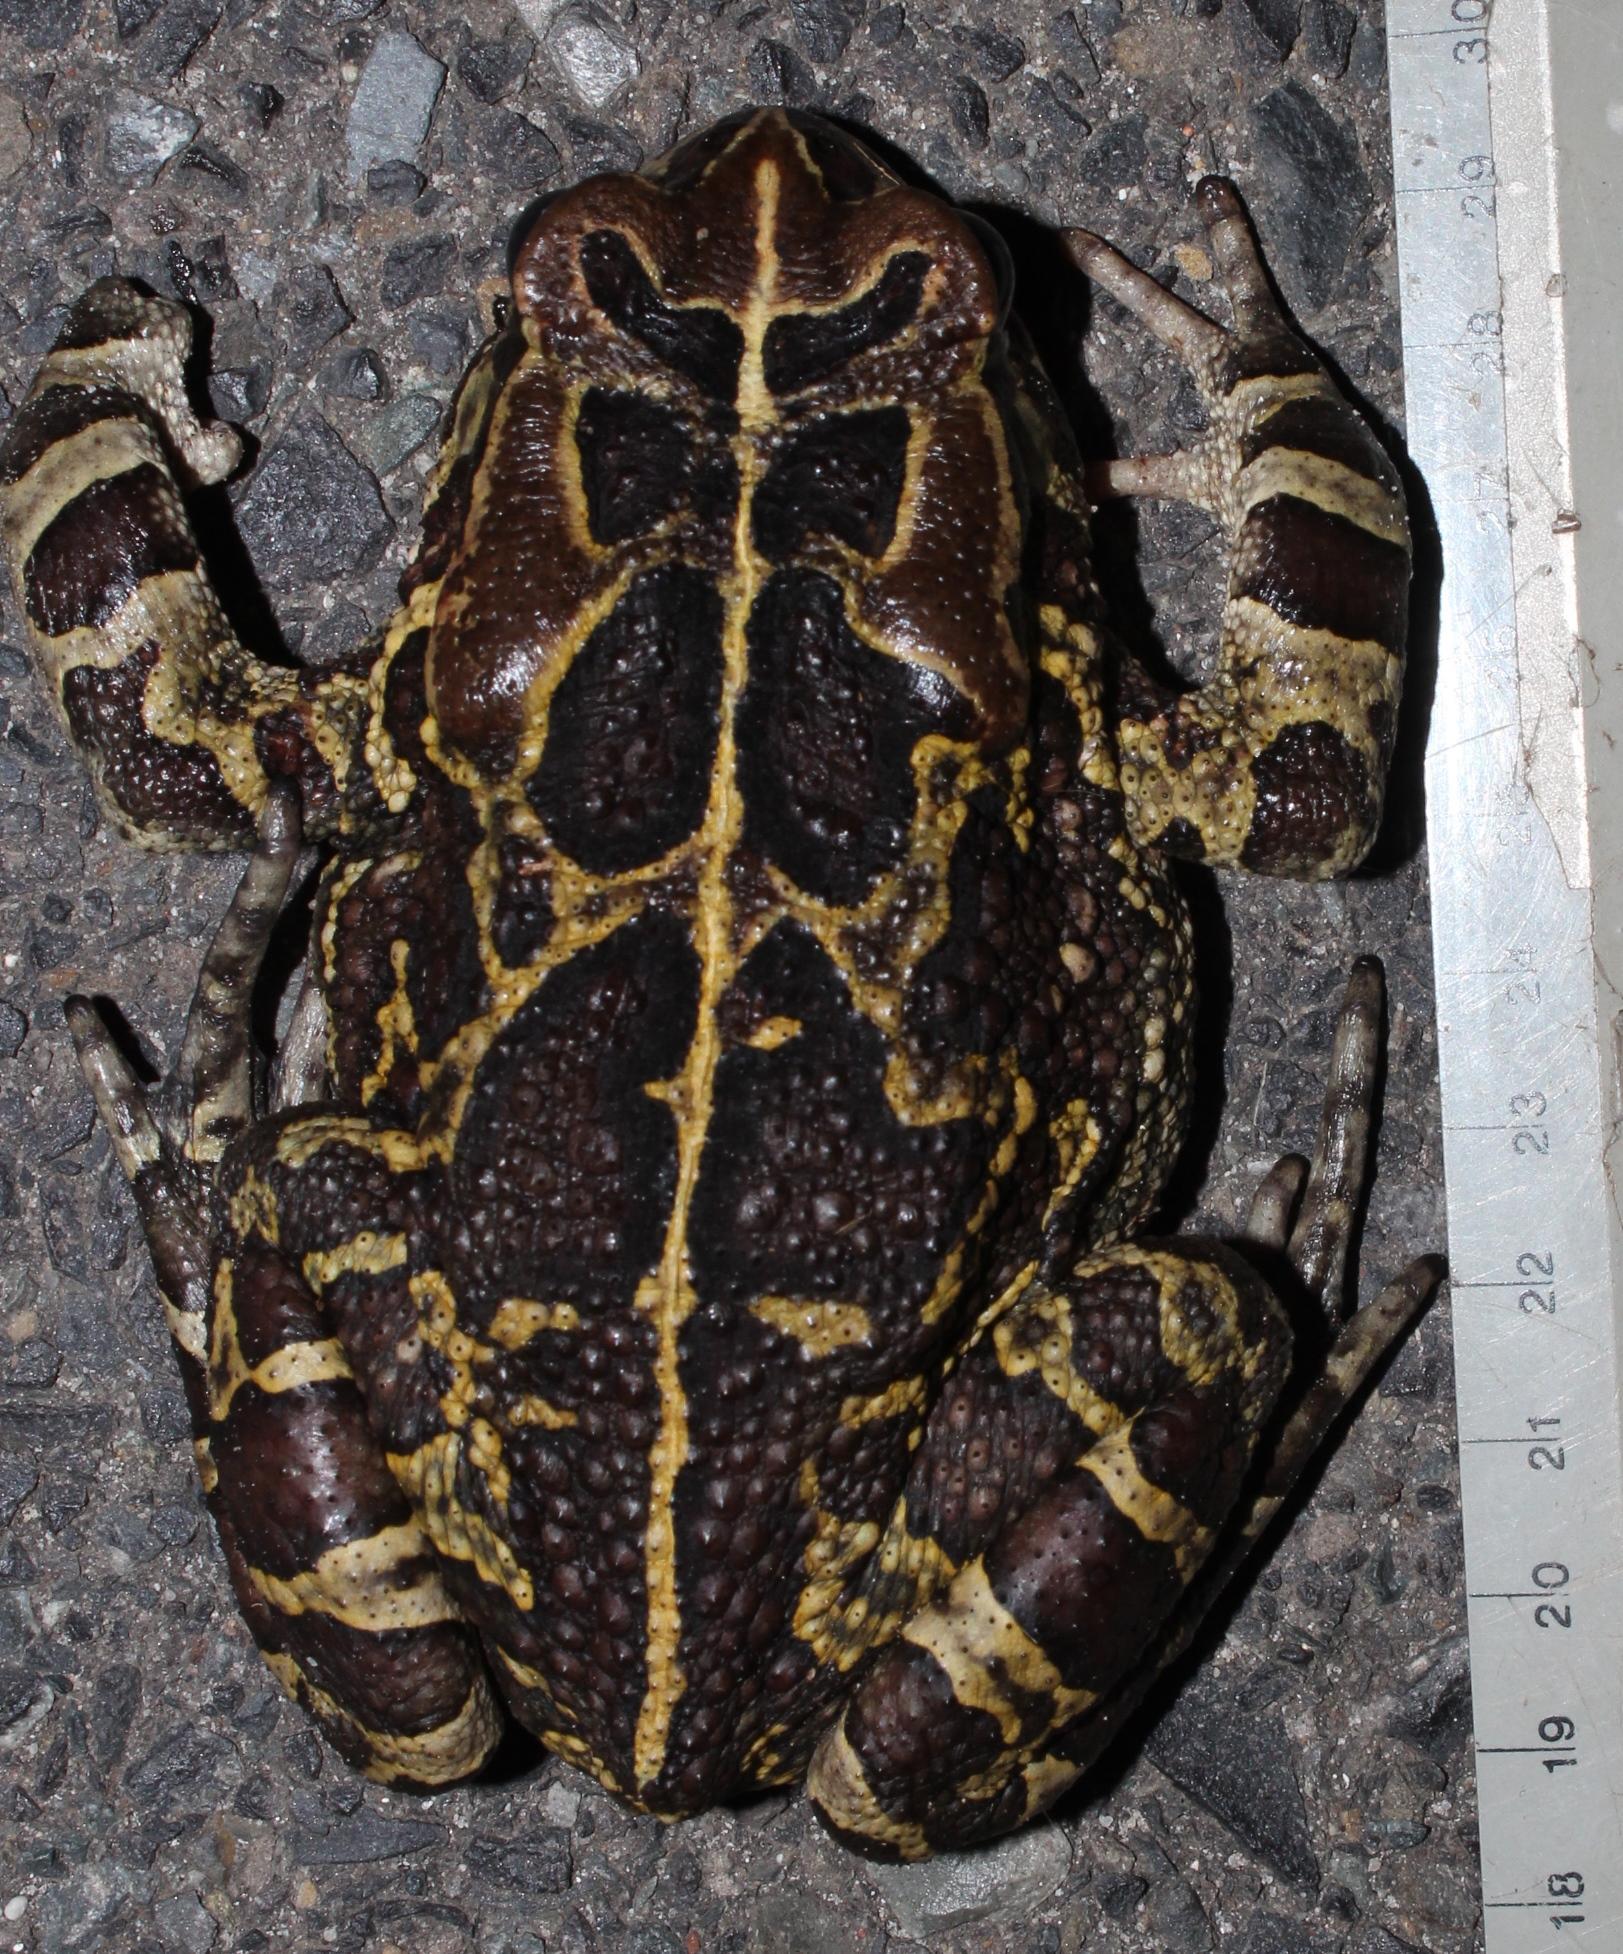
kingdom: Animalia
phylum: Chordata
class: Amphibia
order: Anura
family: Bufonidae
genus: Sclerophrys
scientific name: Sclerophrys pantherina
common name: Panther toad
